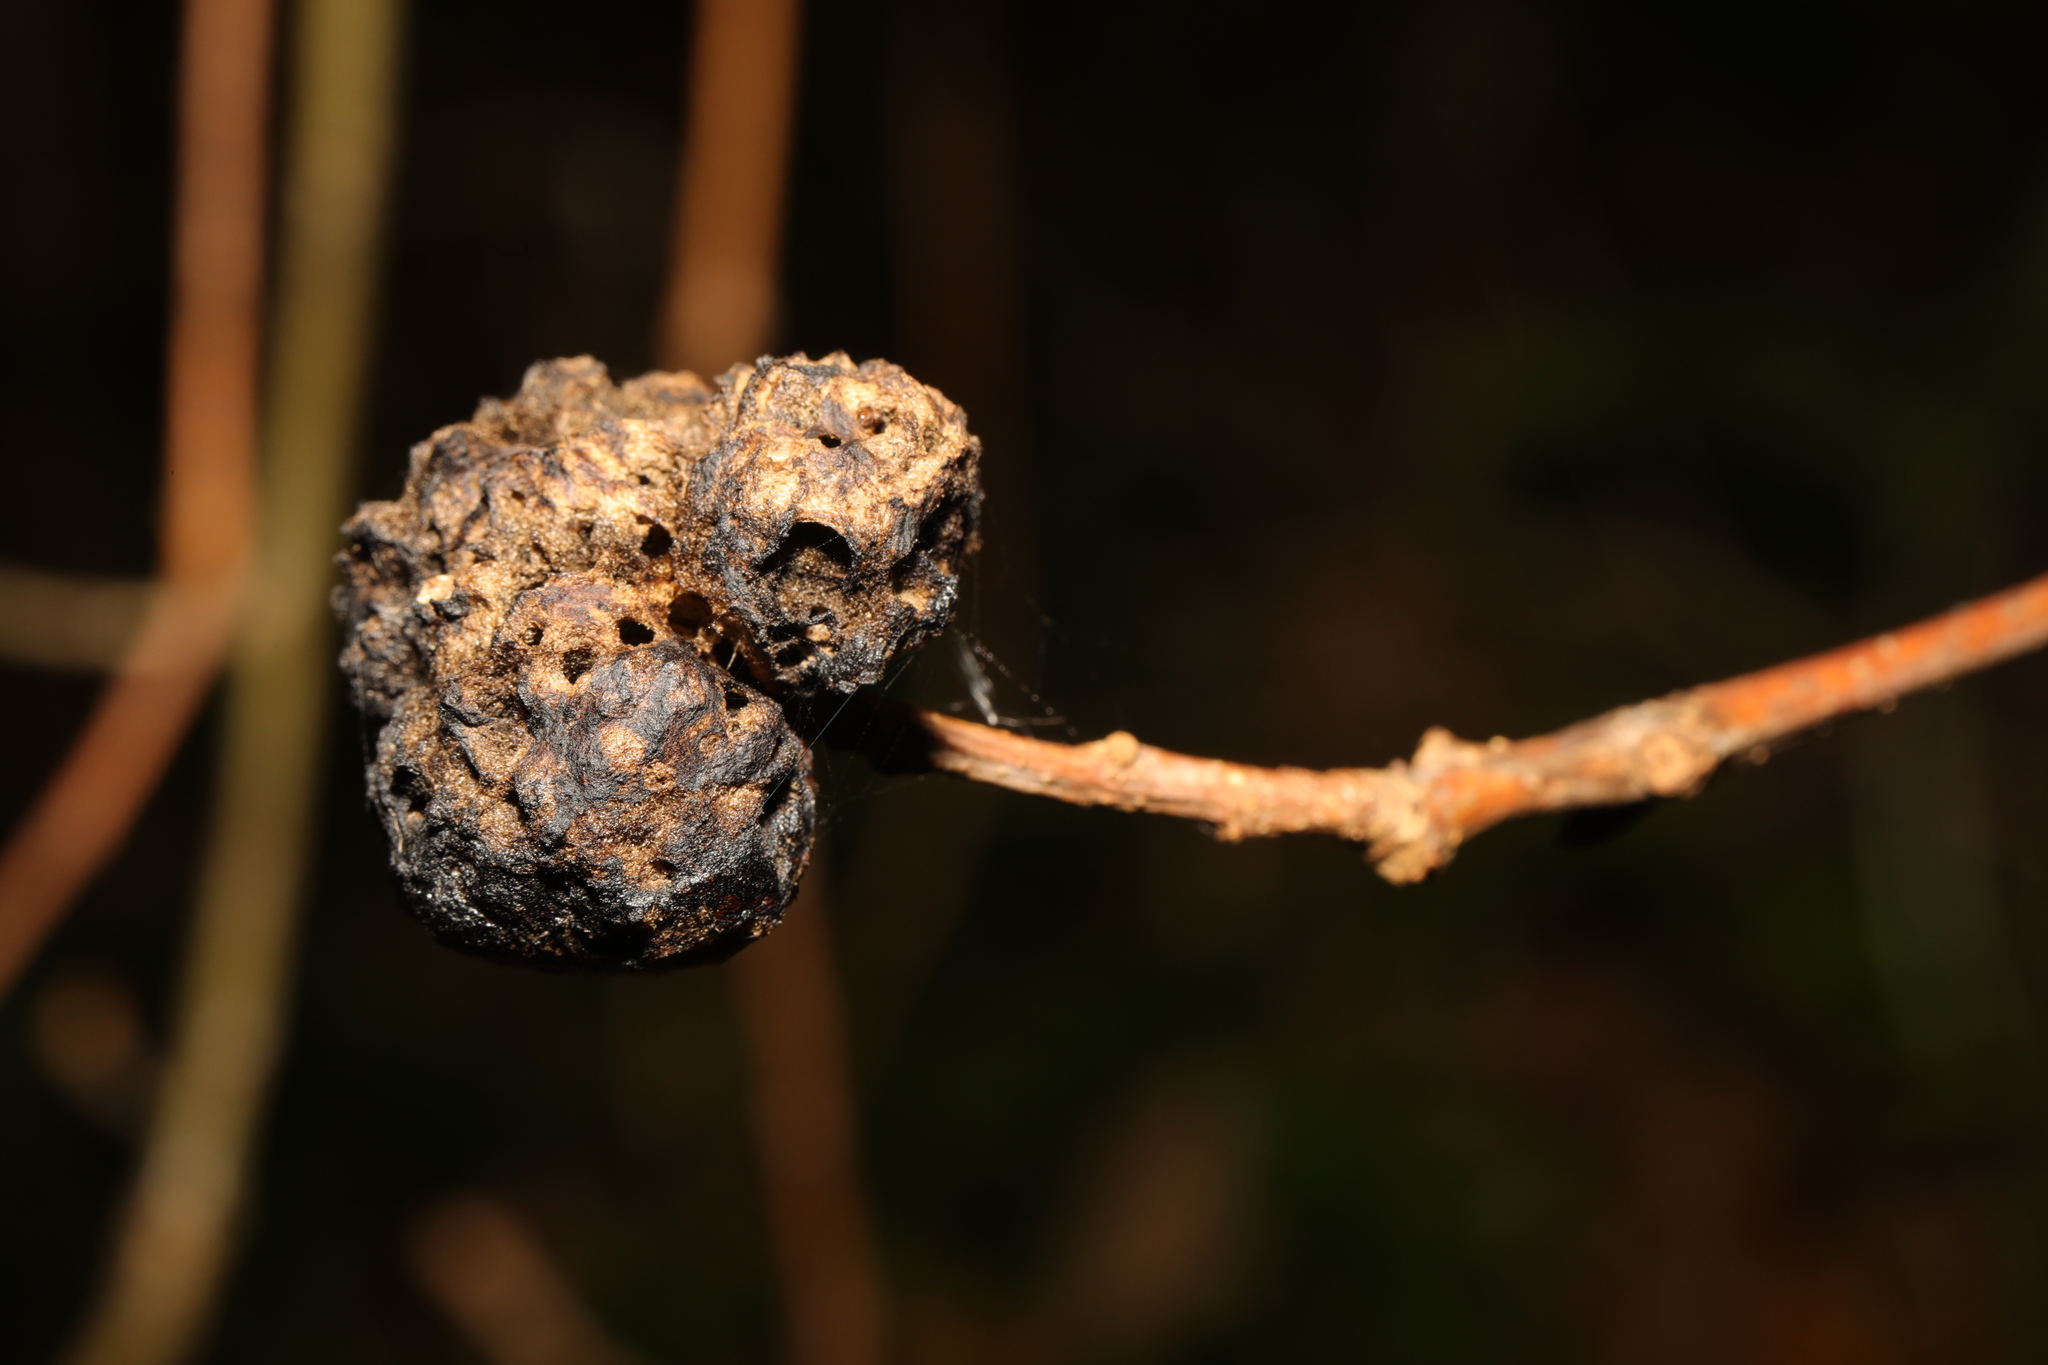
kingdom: Animalia
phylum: Arthropoda
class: Insecta
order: Hymenoptera
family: Cynipidae
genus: Biorhiza
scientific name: Biorhiza pallida
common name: Oak apple
